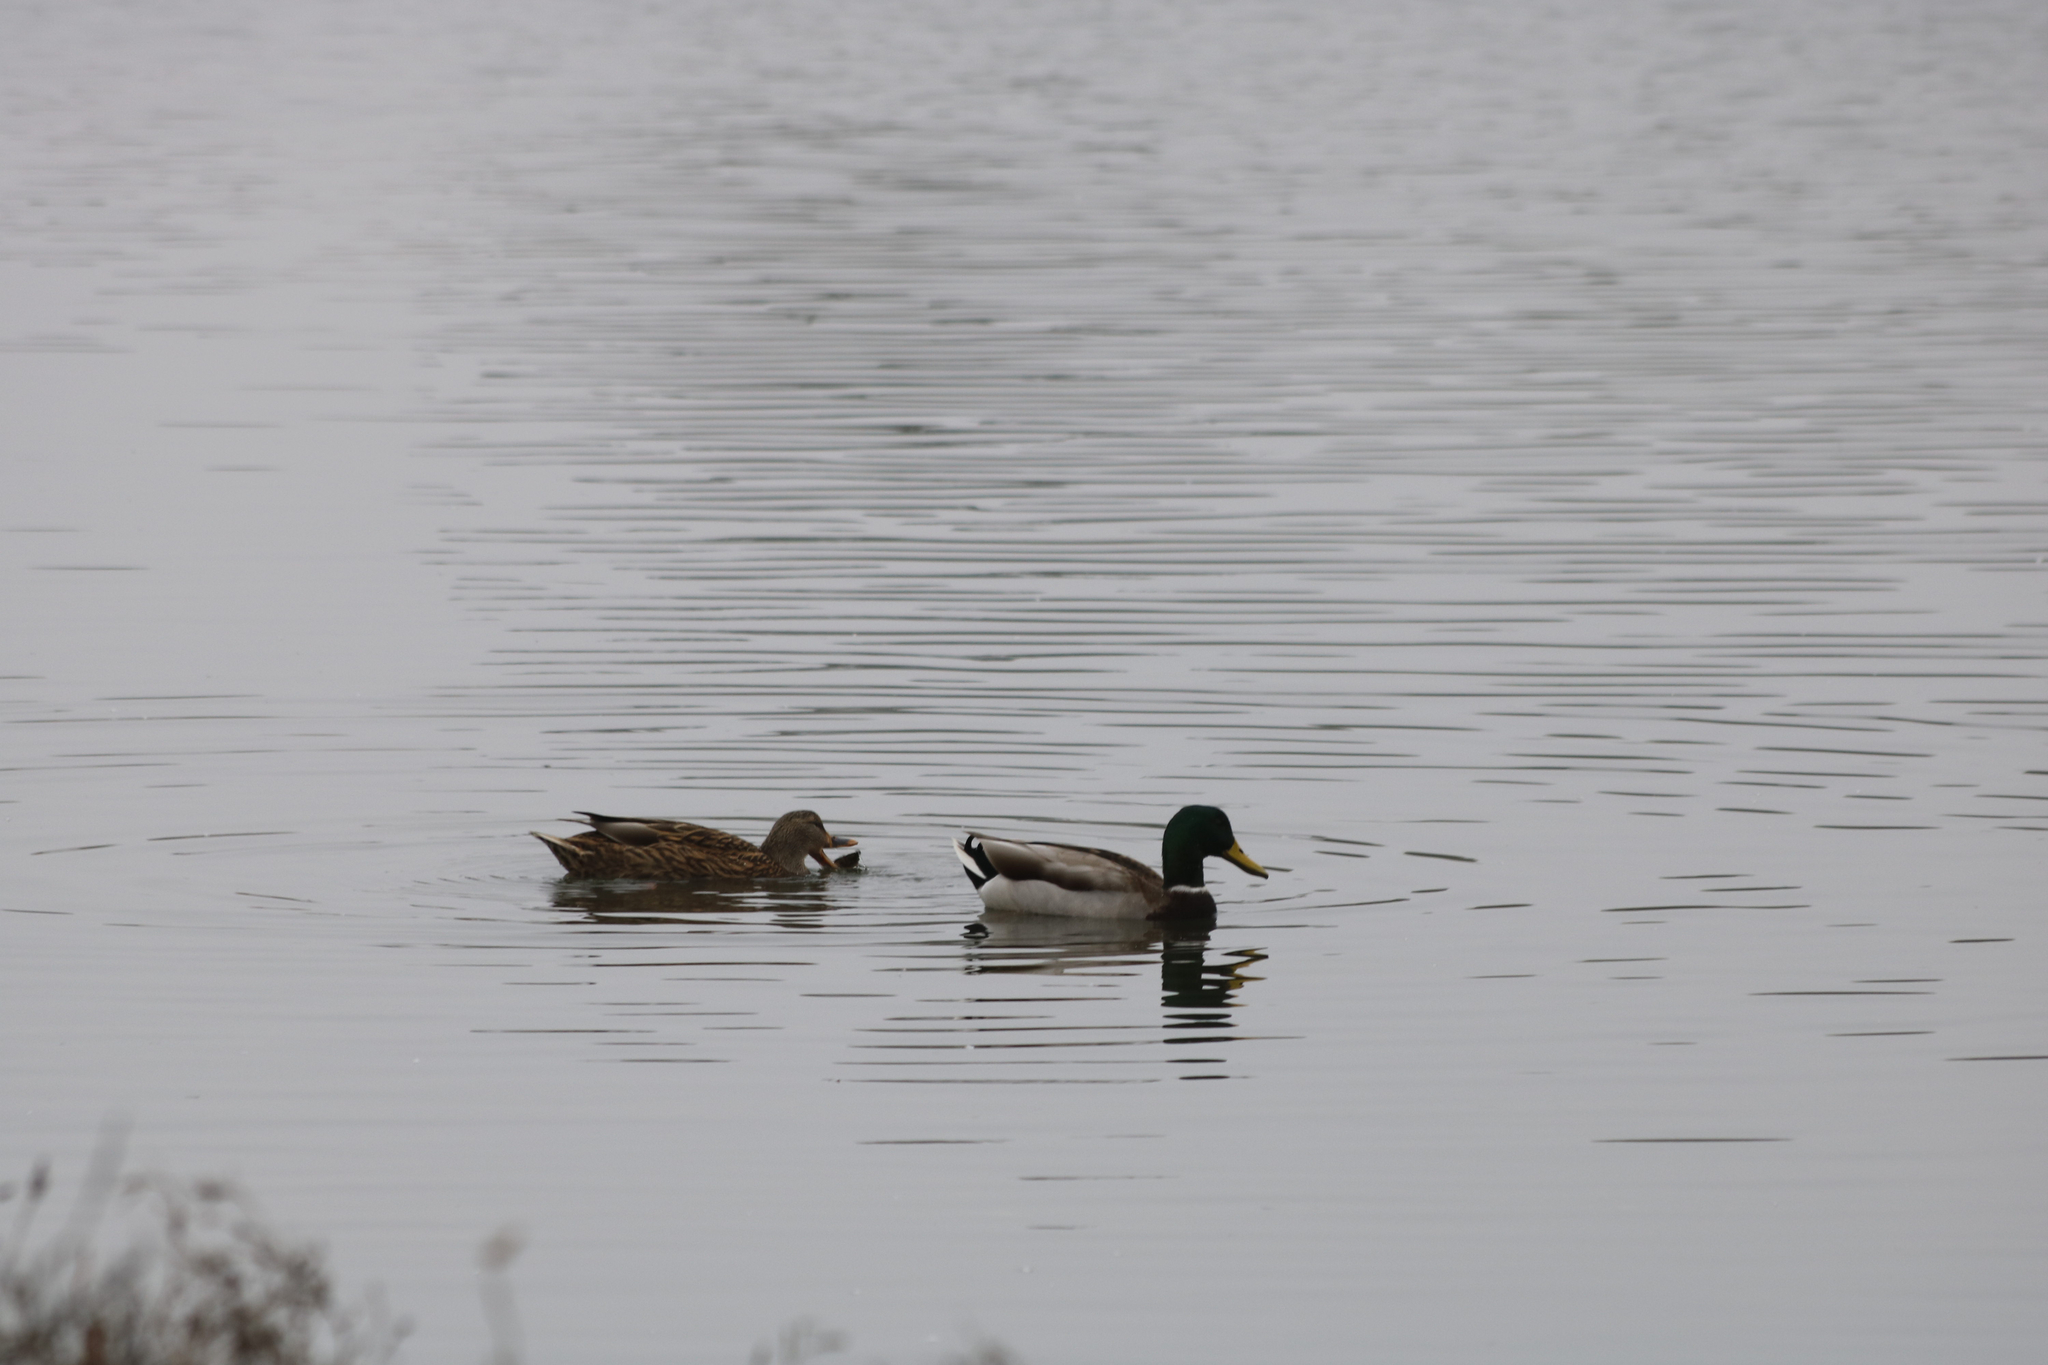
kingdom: Animalia
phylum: Chordata
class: Aves
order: Anseriformes
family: Anatidae
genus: Anas
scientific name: Anas platyrhynchos
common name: Mallard
